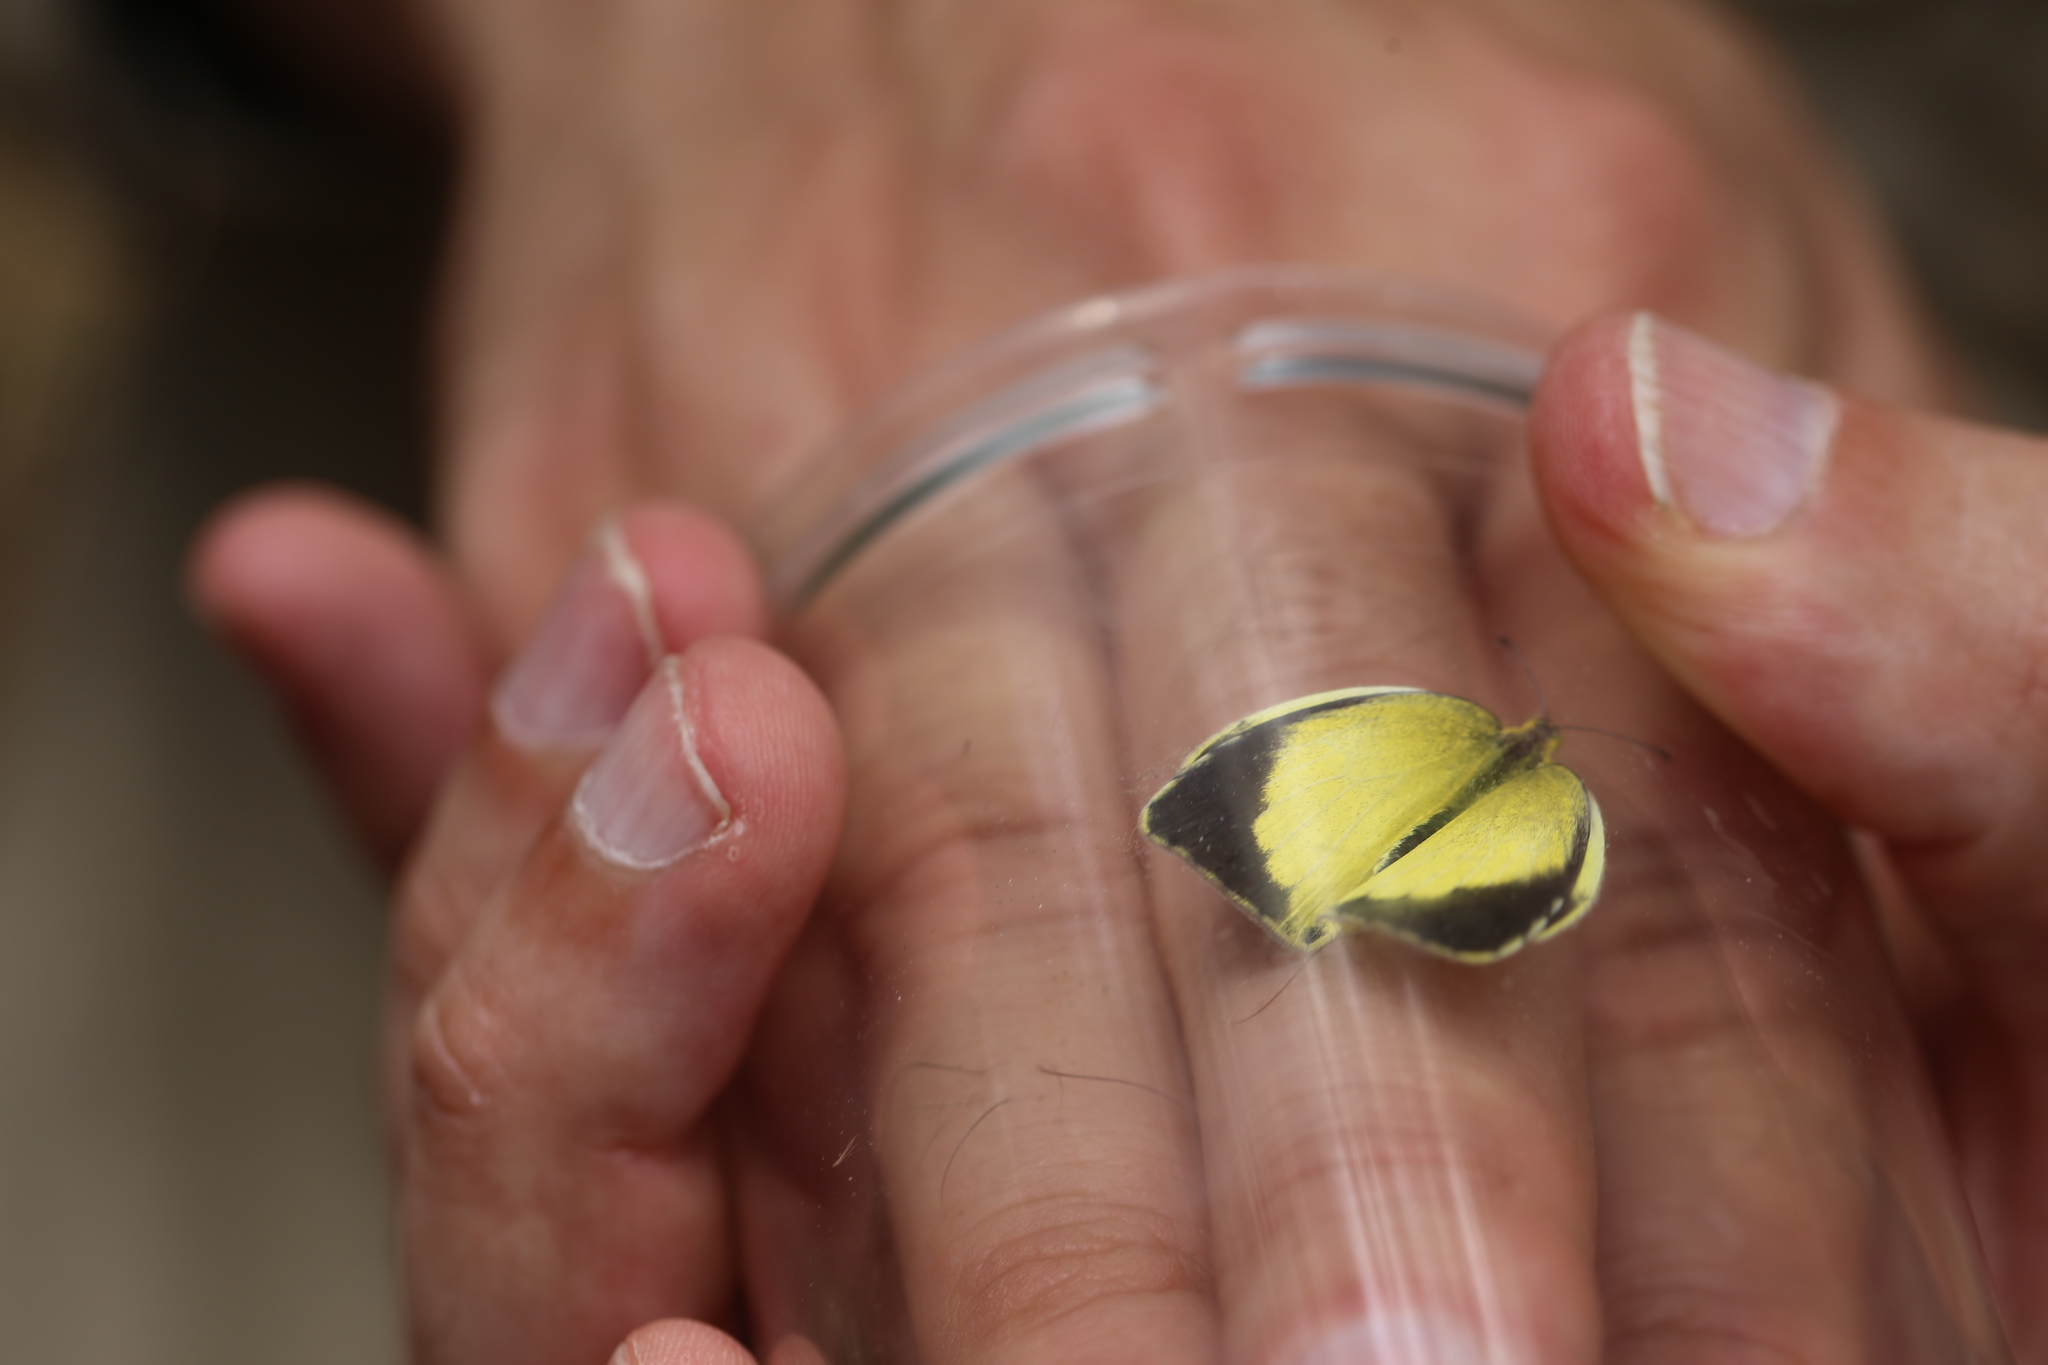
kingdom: Animalia
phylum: Arthropoda
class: Insecta
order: Lepidoptera
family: Pieridae
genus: Eurema
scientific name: Eurema brigitta
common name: Small grass yellow
